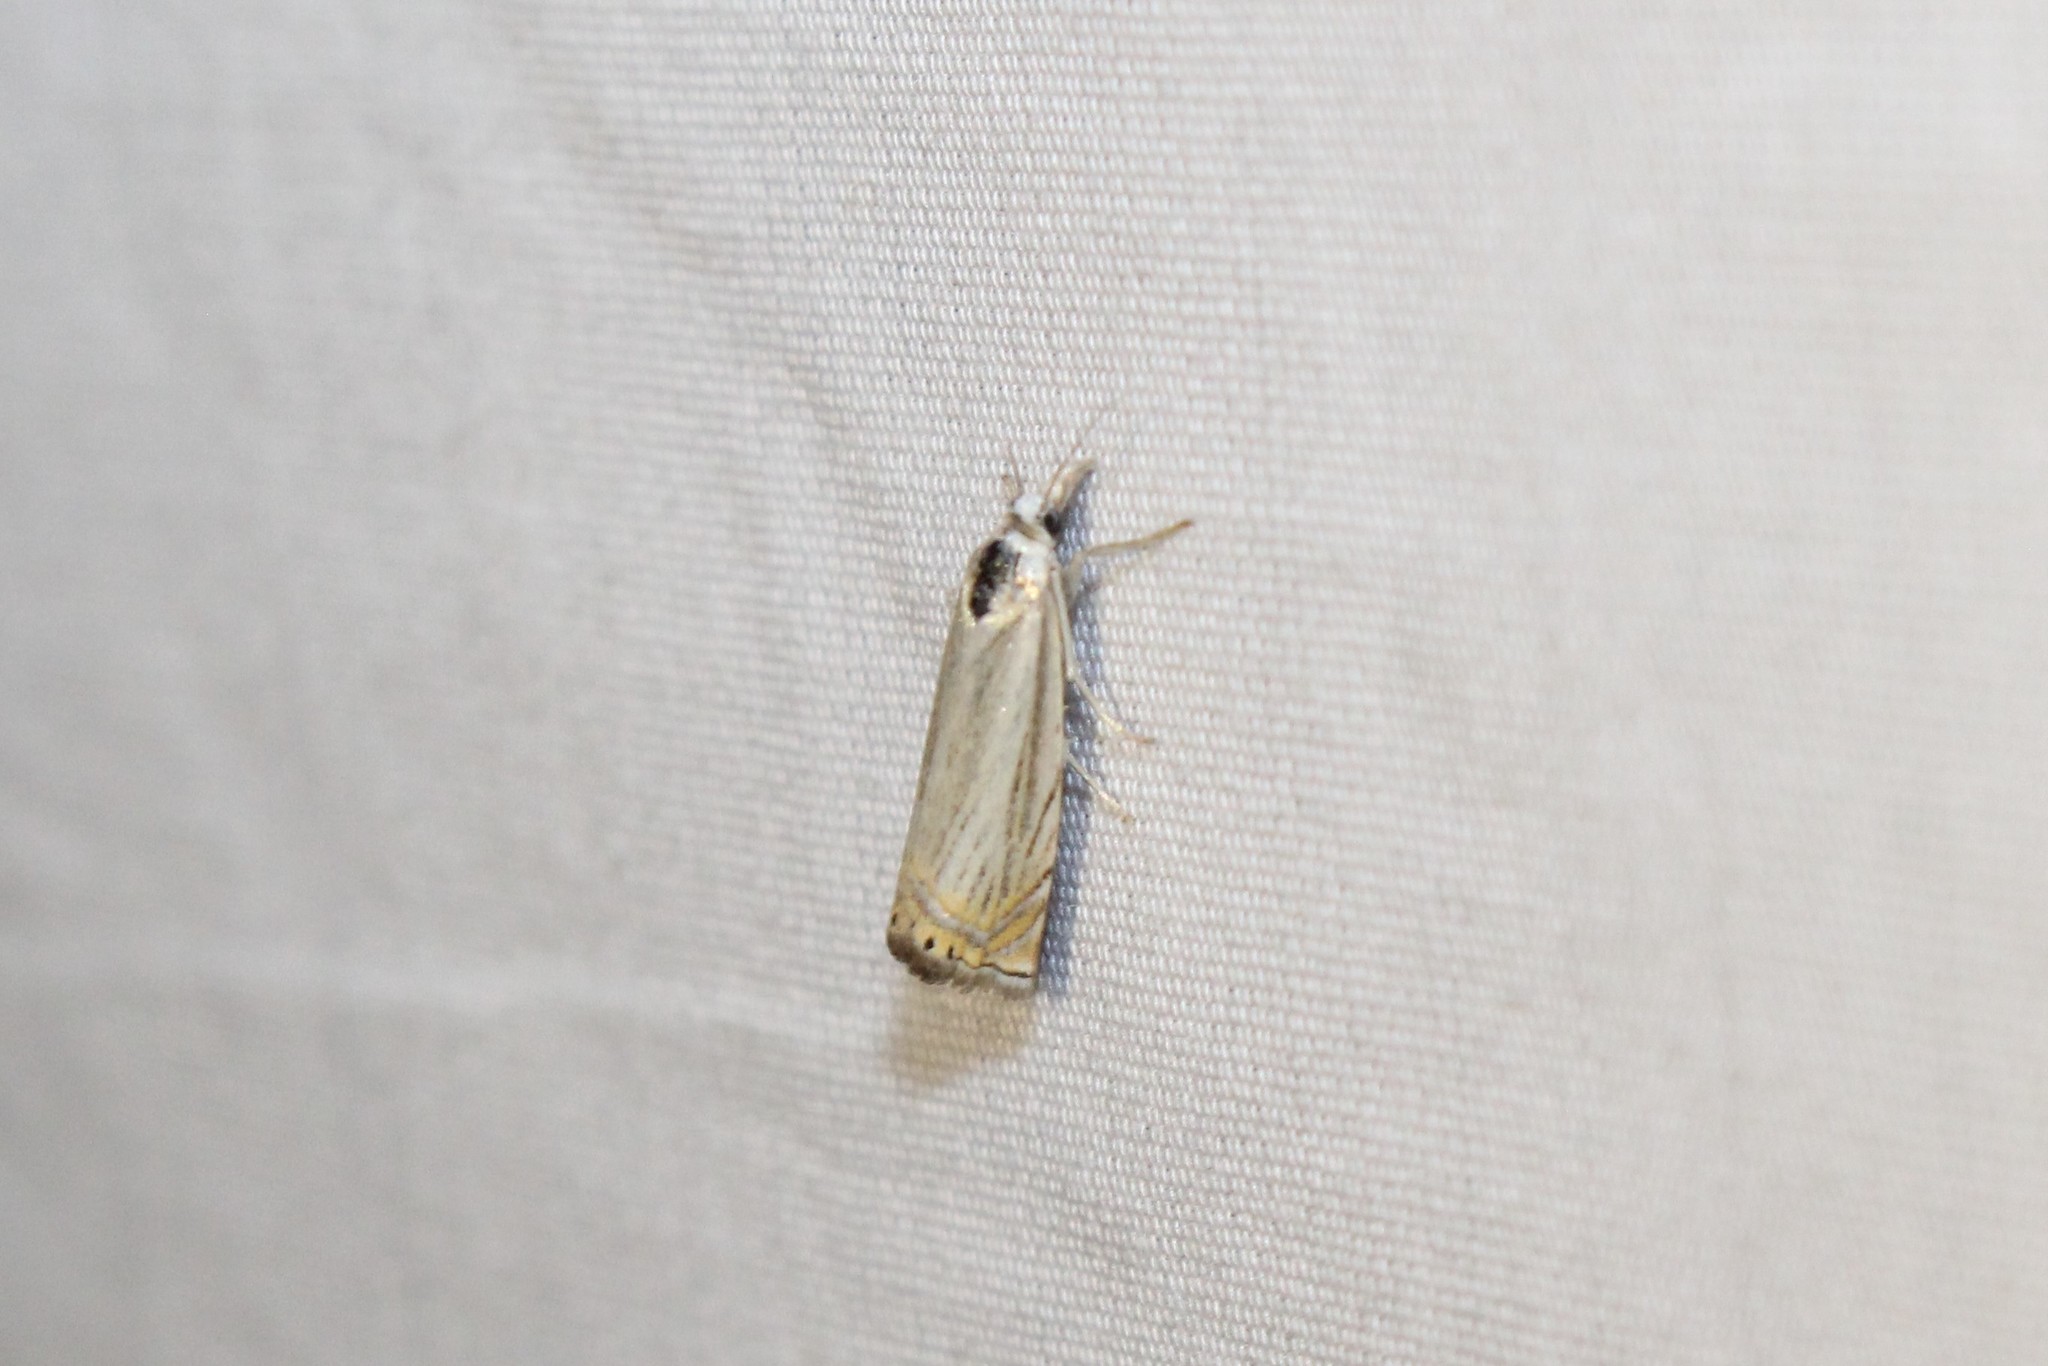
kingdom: Animalia
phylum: Arthropoda
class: Insecta
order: Lepidoptera
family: Crambidae
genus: Chrysoteuchia
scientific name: Chrysoteuchia topiarius
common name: Topiary grass-veneer
